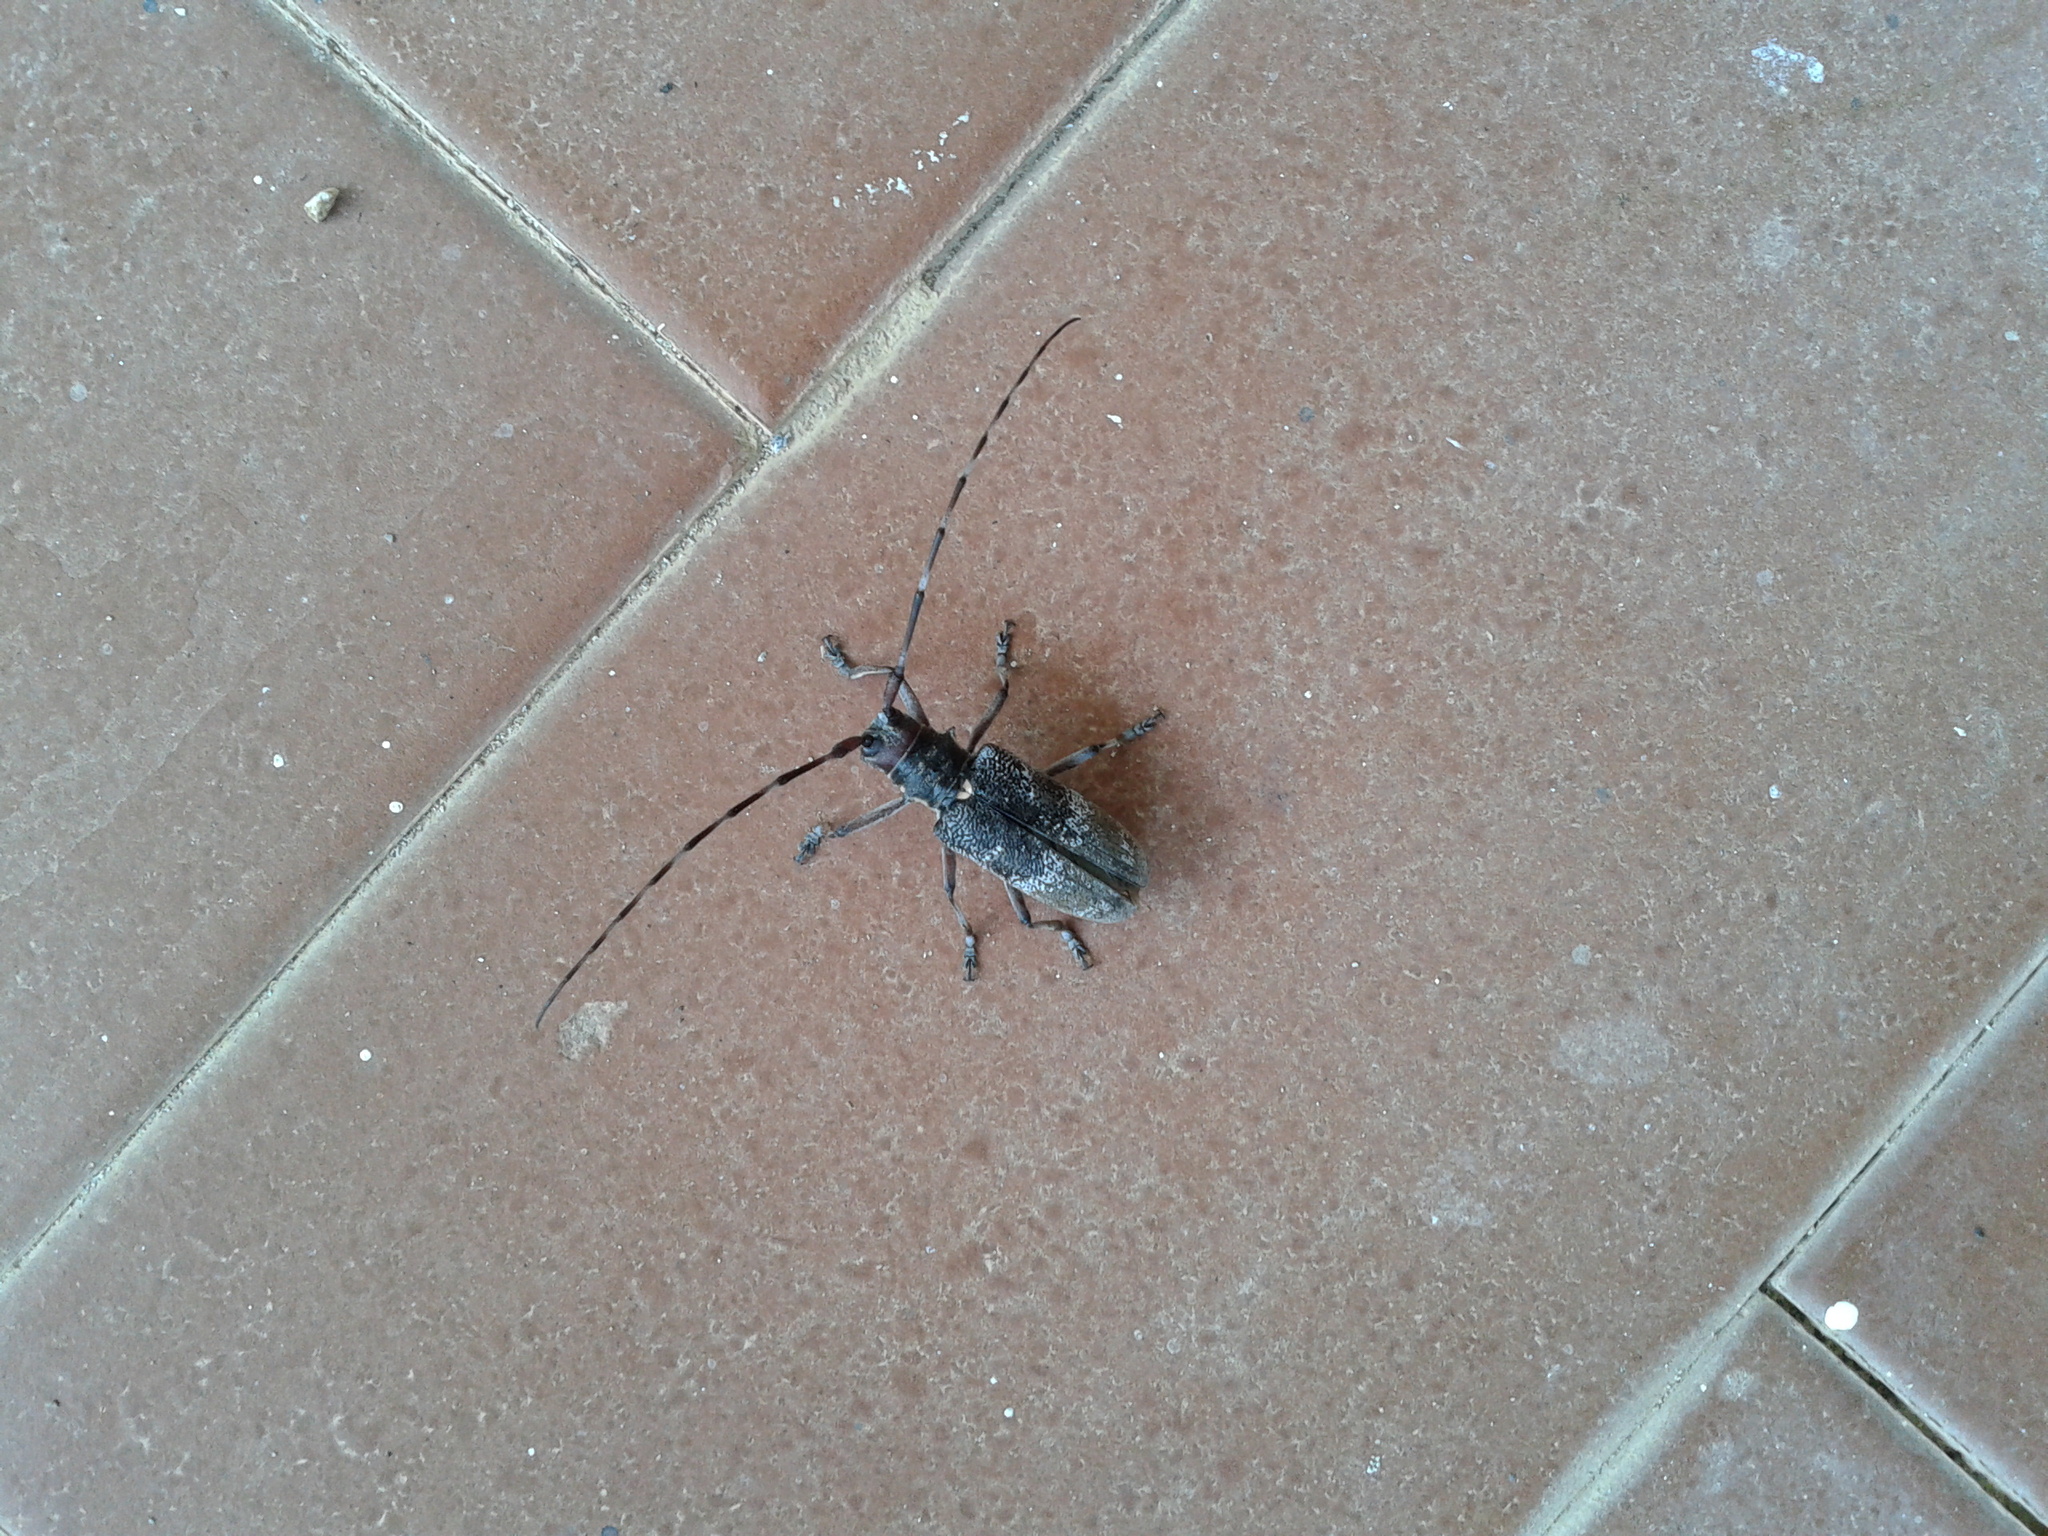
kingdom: Animalia
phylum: Arthropoda
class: Insecta
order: Coleoptera
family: Cerambycidae
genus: Monochamus
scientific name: Monochamus galloprovincialis
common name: Pine sawyer
